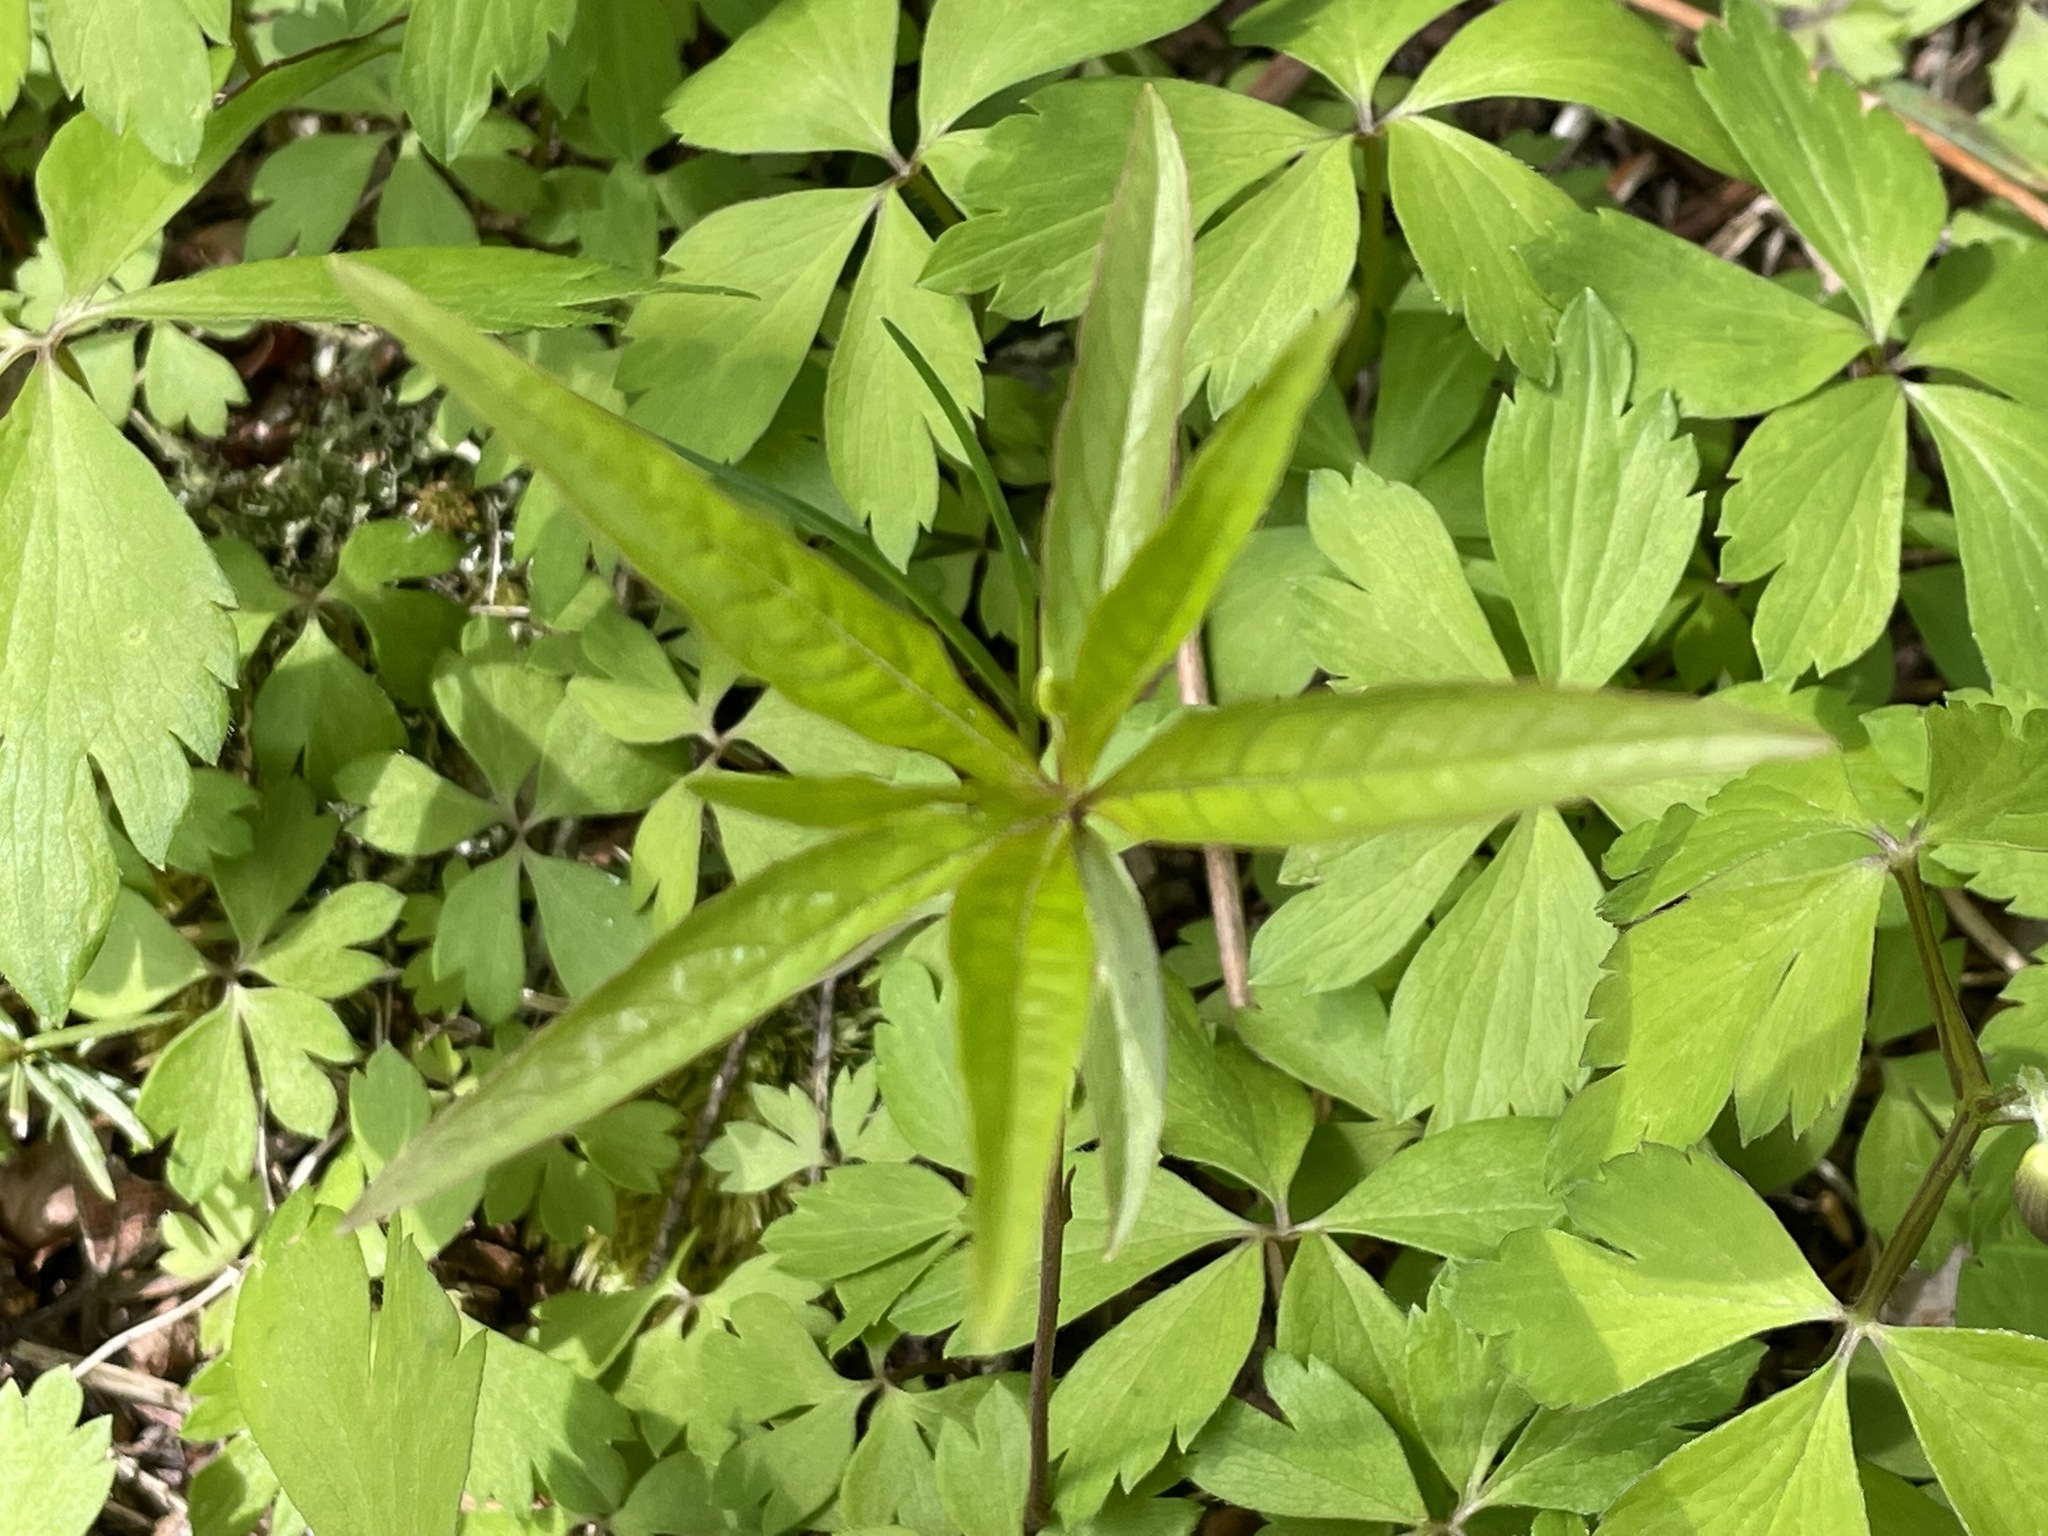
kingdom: Plantae
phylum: Tracheophyta
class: Magnoliopsida
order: Ericales
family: Primulaceae
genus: Lysimachia
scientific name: Lysimachia borealis
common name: American starflower
